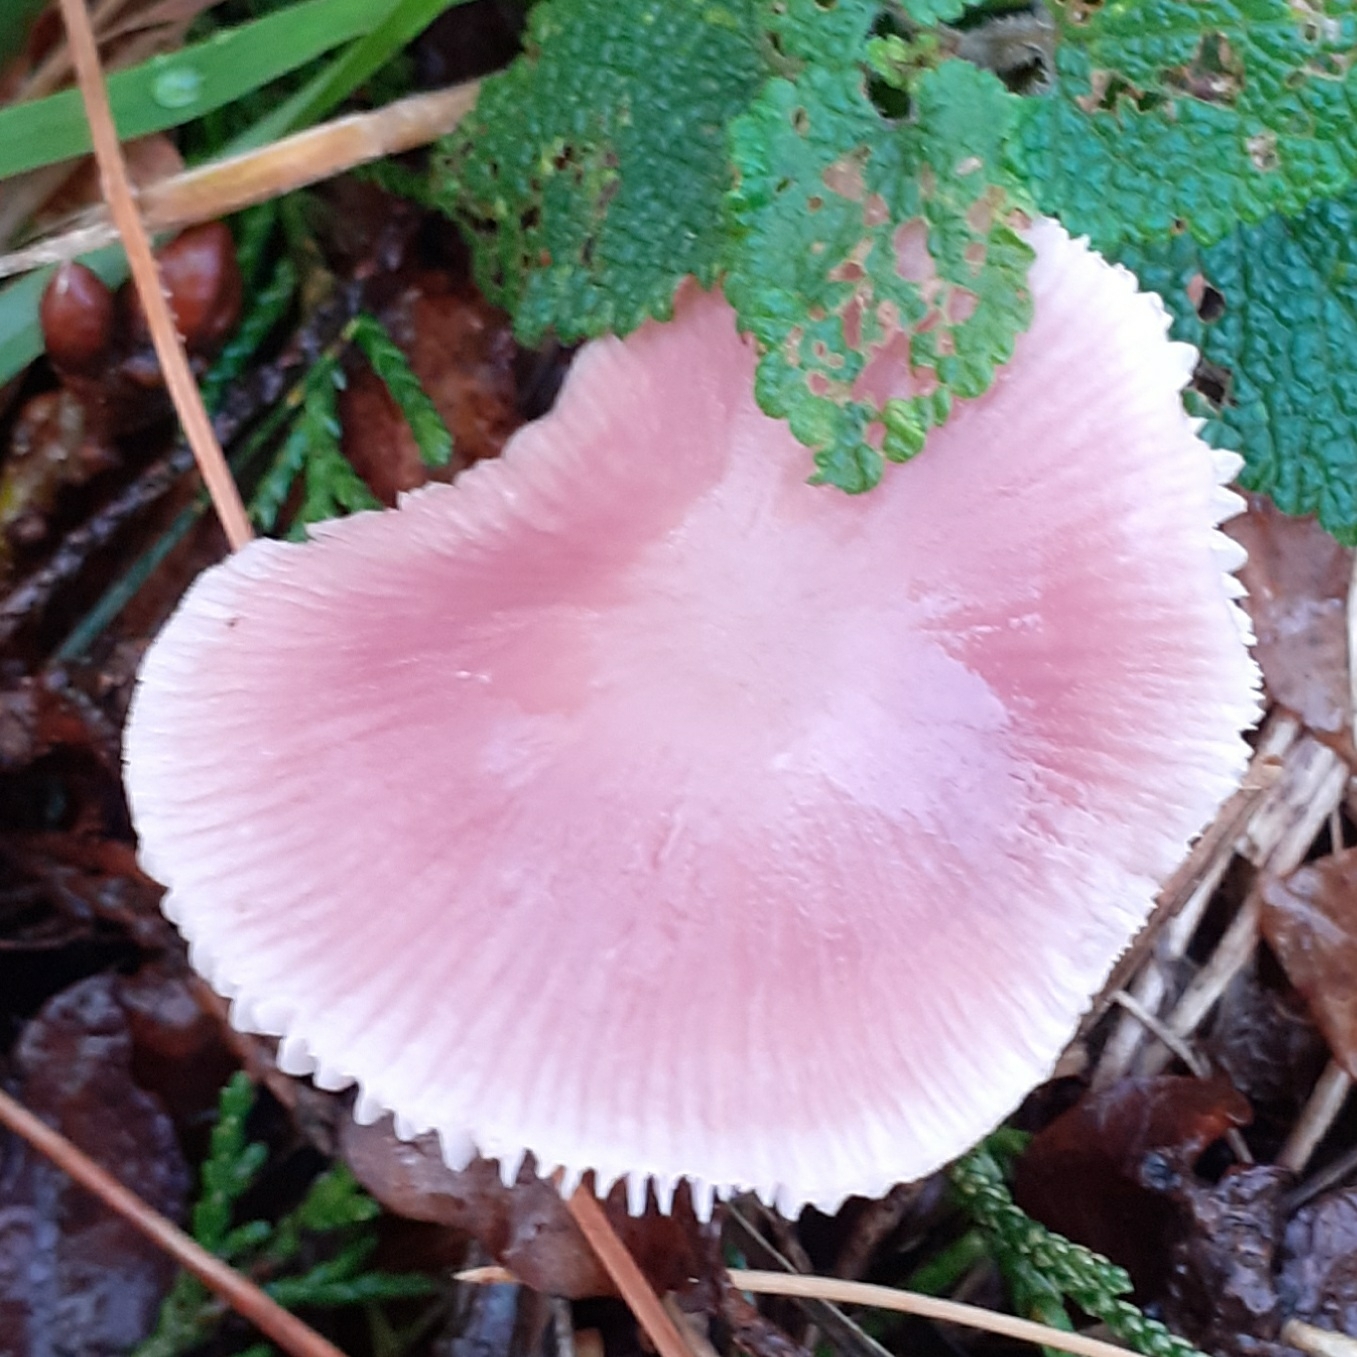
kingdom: Fungi
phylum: Basidiomycota
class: Agaricomycetes
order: Agaricales
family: Mycenaceae
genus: Mycena
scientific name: Mycena rosea
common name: Rosy bonnet
